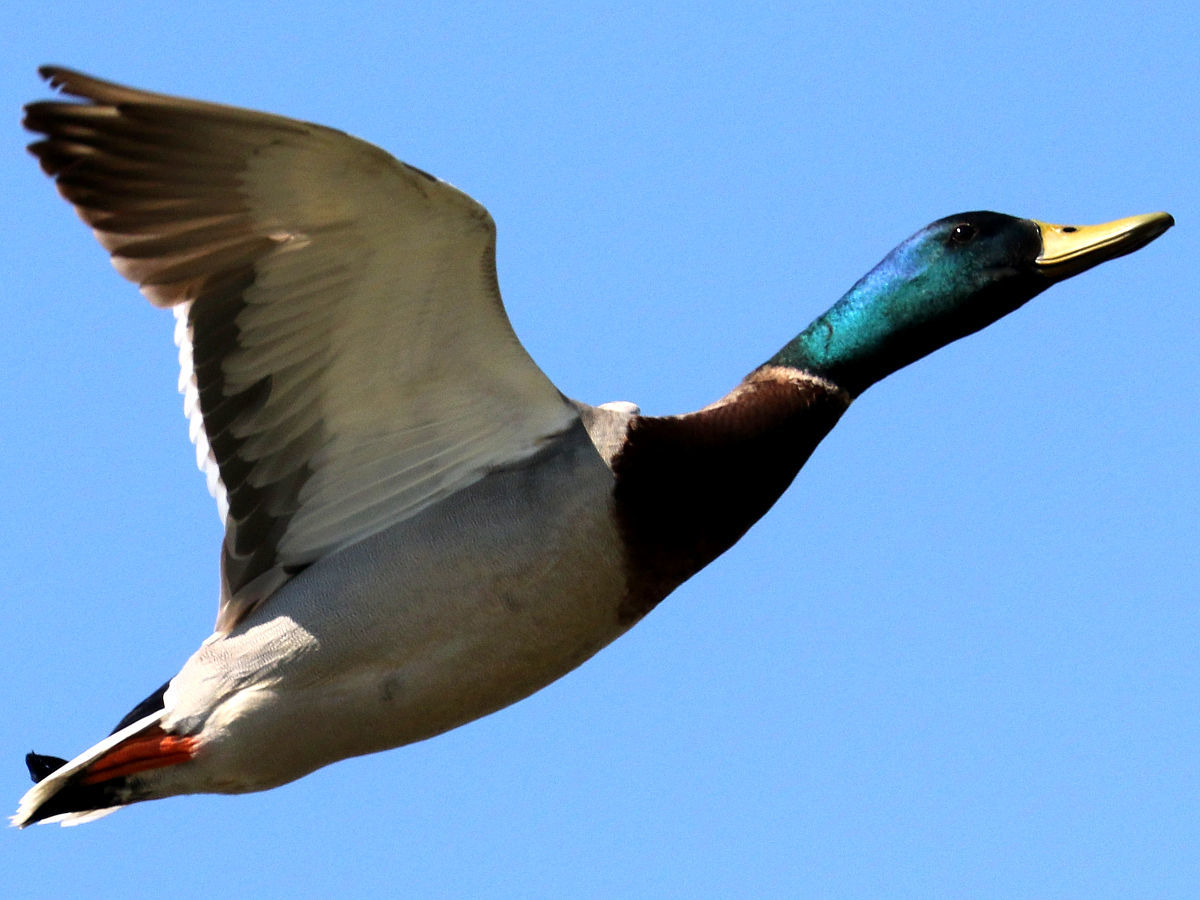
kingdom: Animalia
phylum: Chordata
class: Aves
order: Anseriformes
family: Anatidae
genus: Anas
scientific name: Anas platyrhynchos
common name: Mallard
